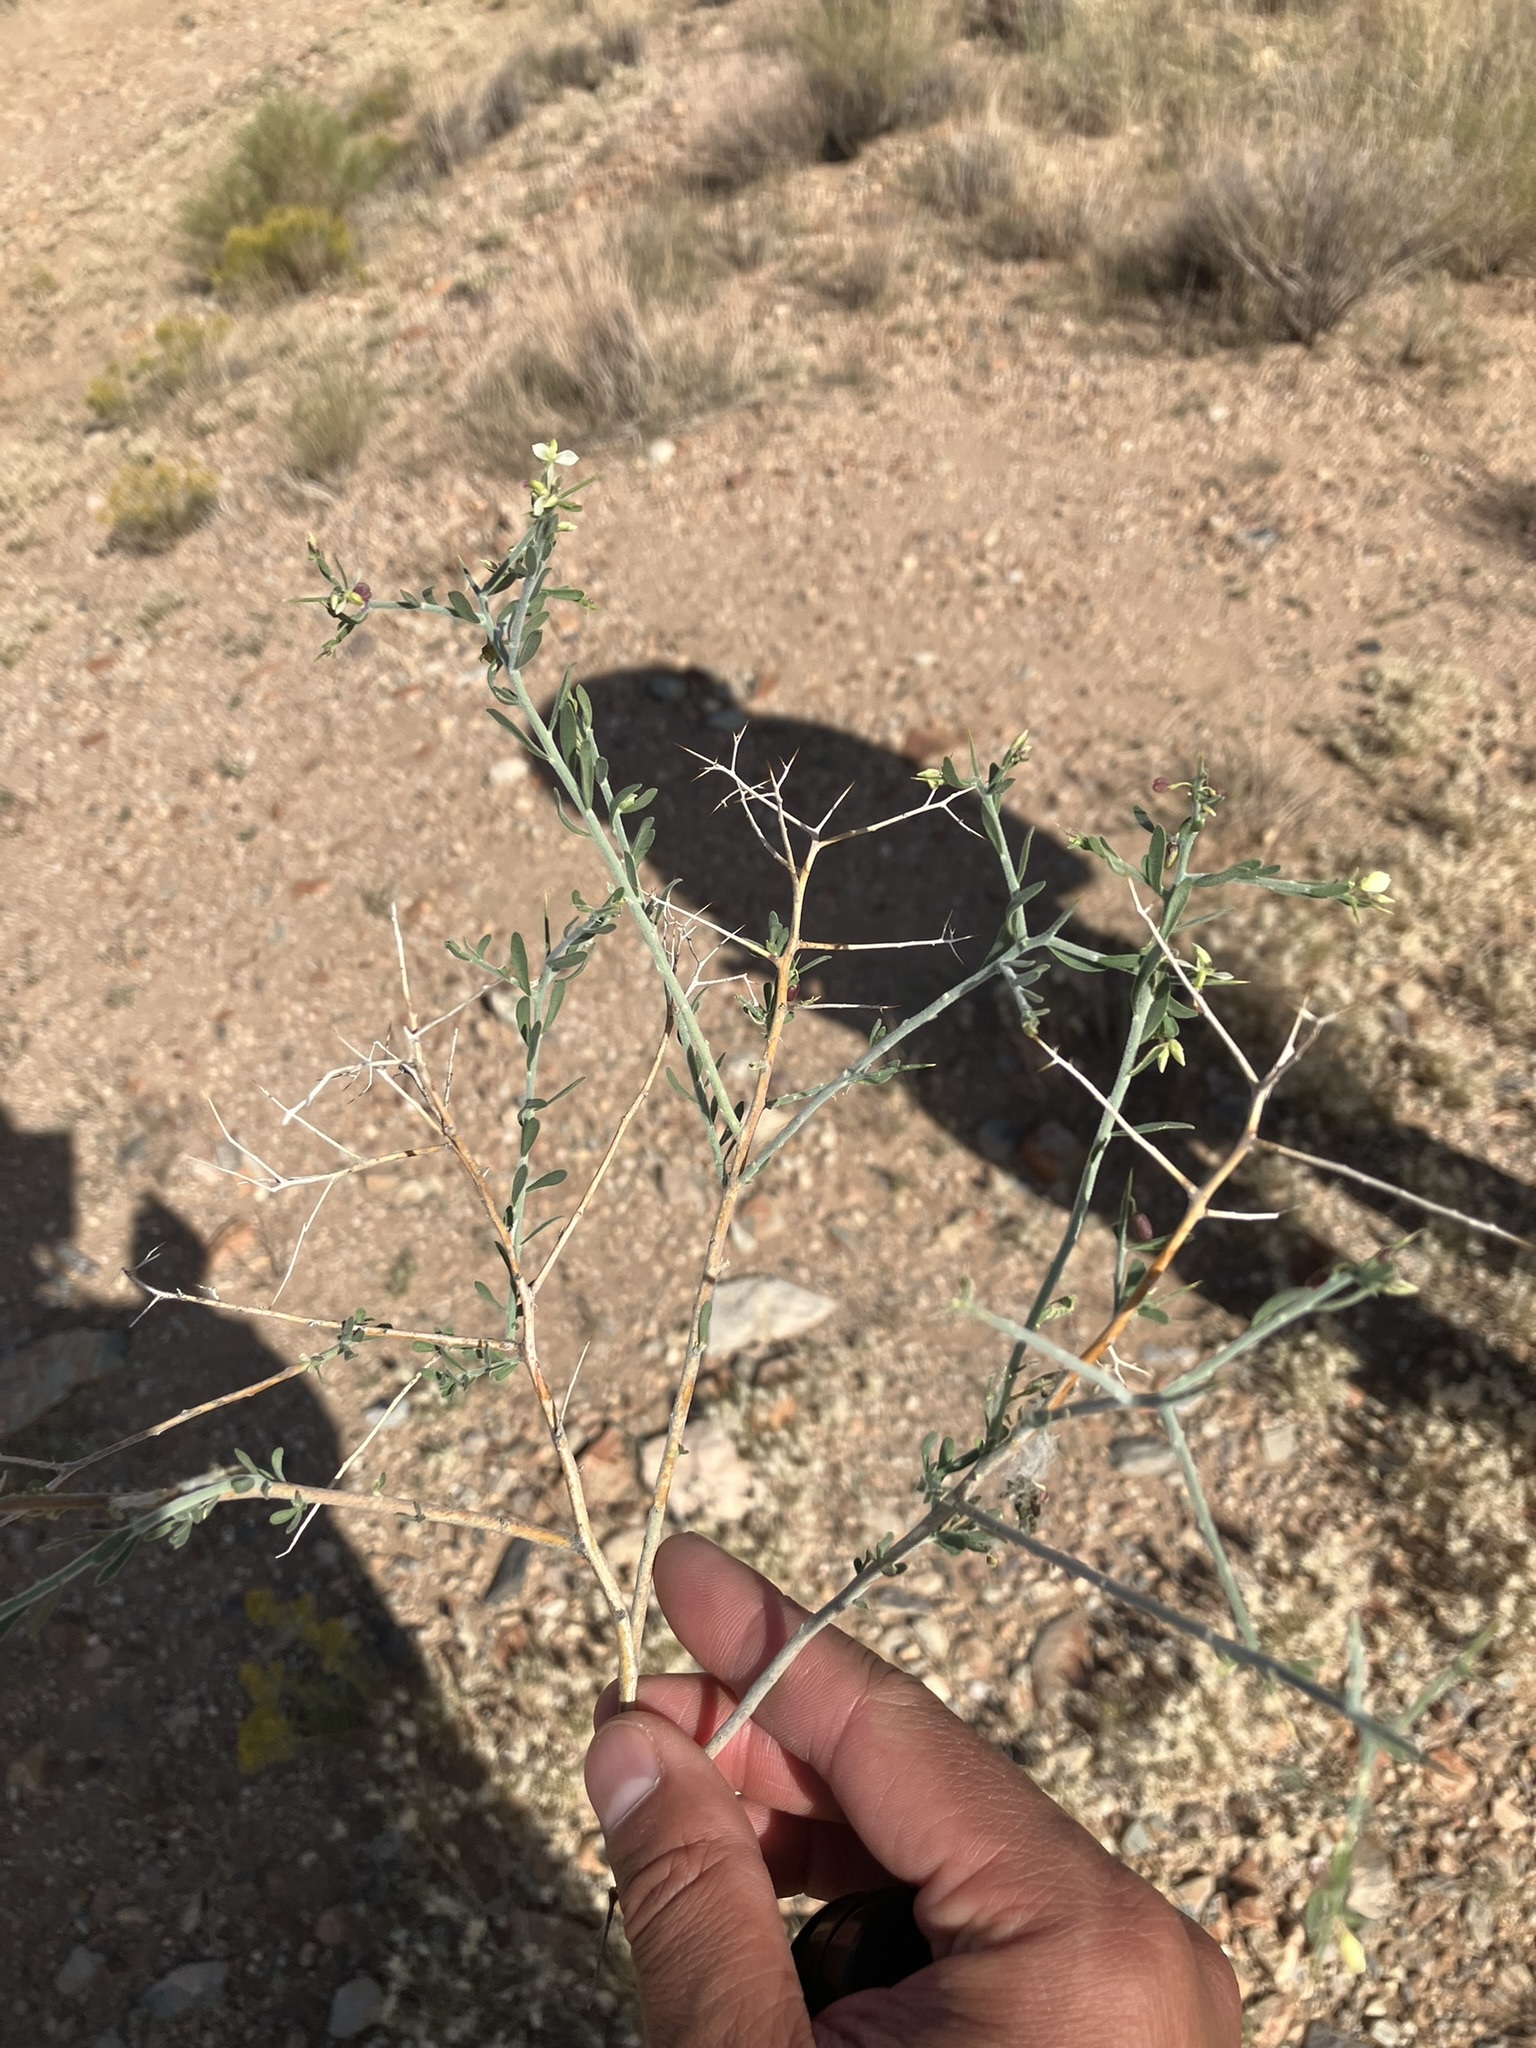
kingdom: Plantae
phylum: Tracheophyta
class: Magnoliopsida
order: Fabales
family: Polygalaceae
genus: Rhinotropis
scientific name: Rhinotropis acanthoclada
